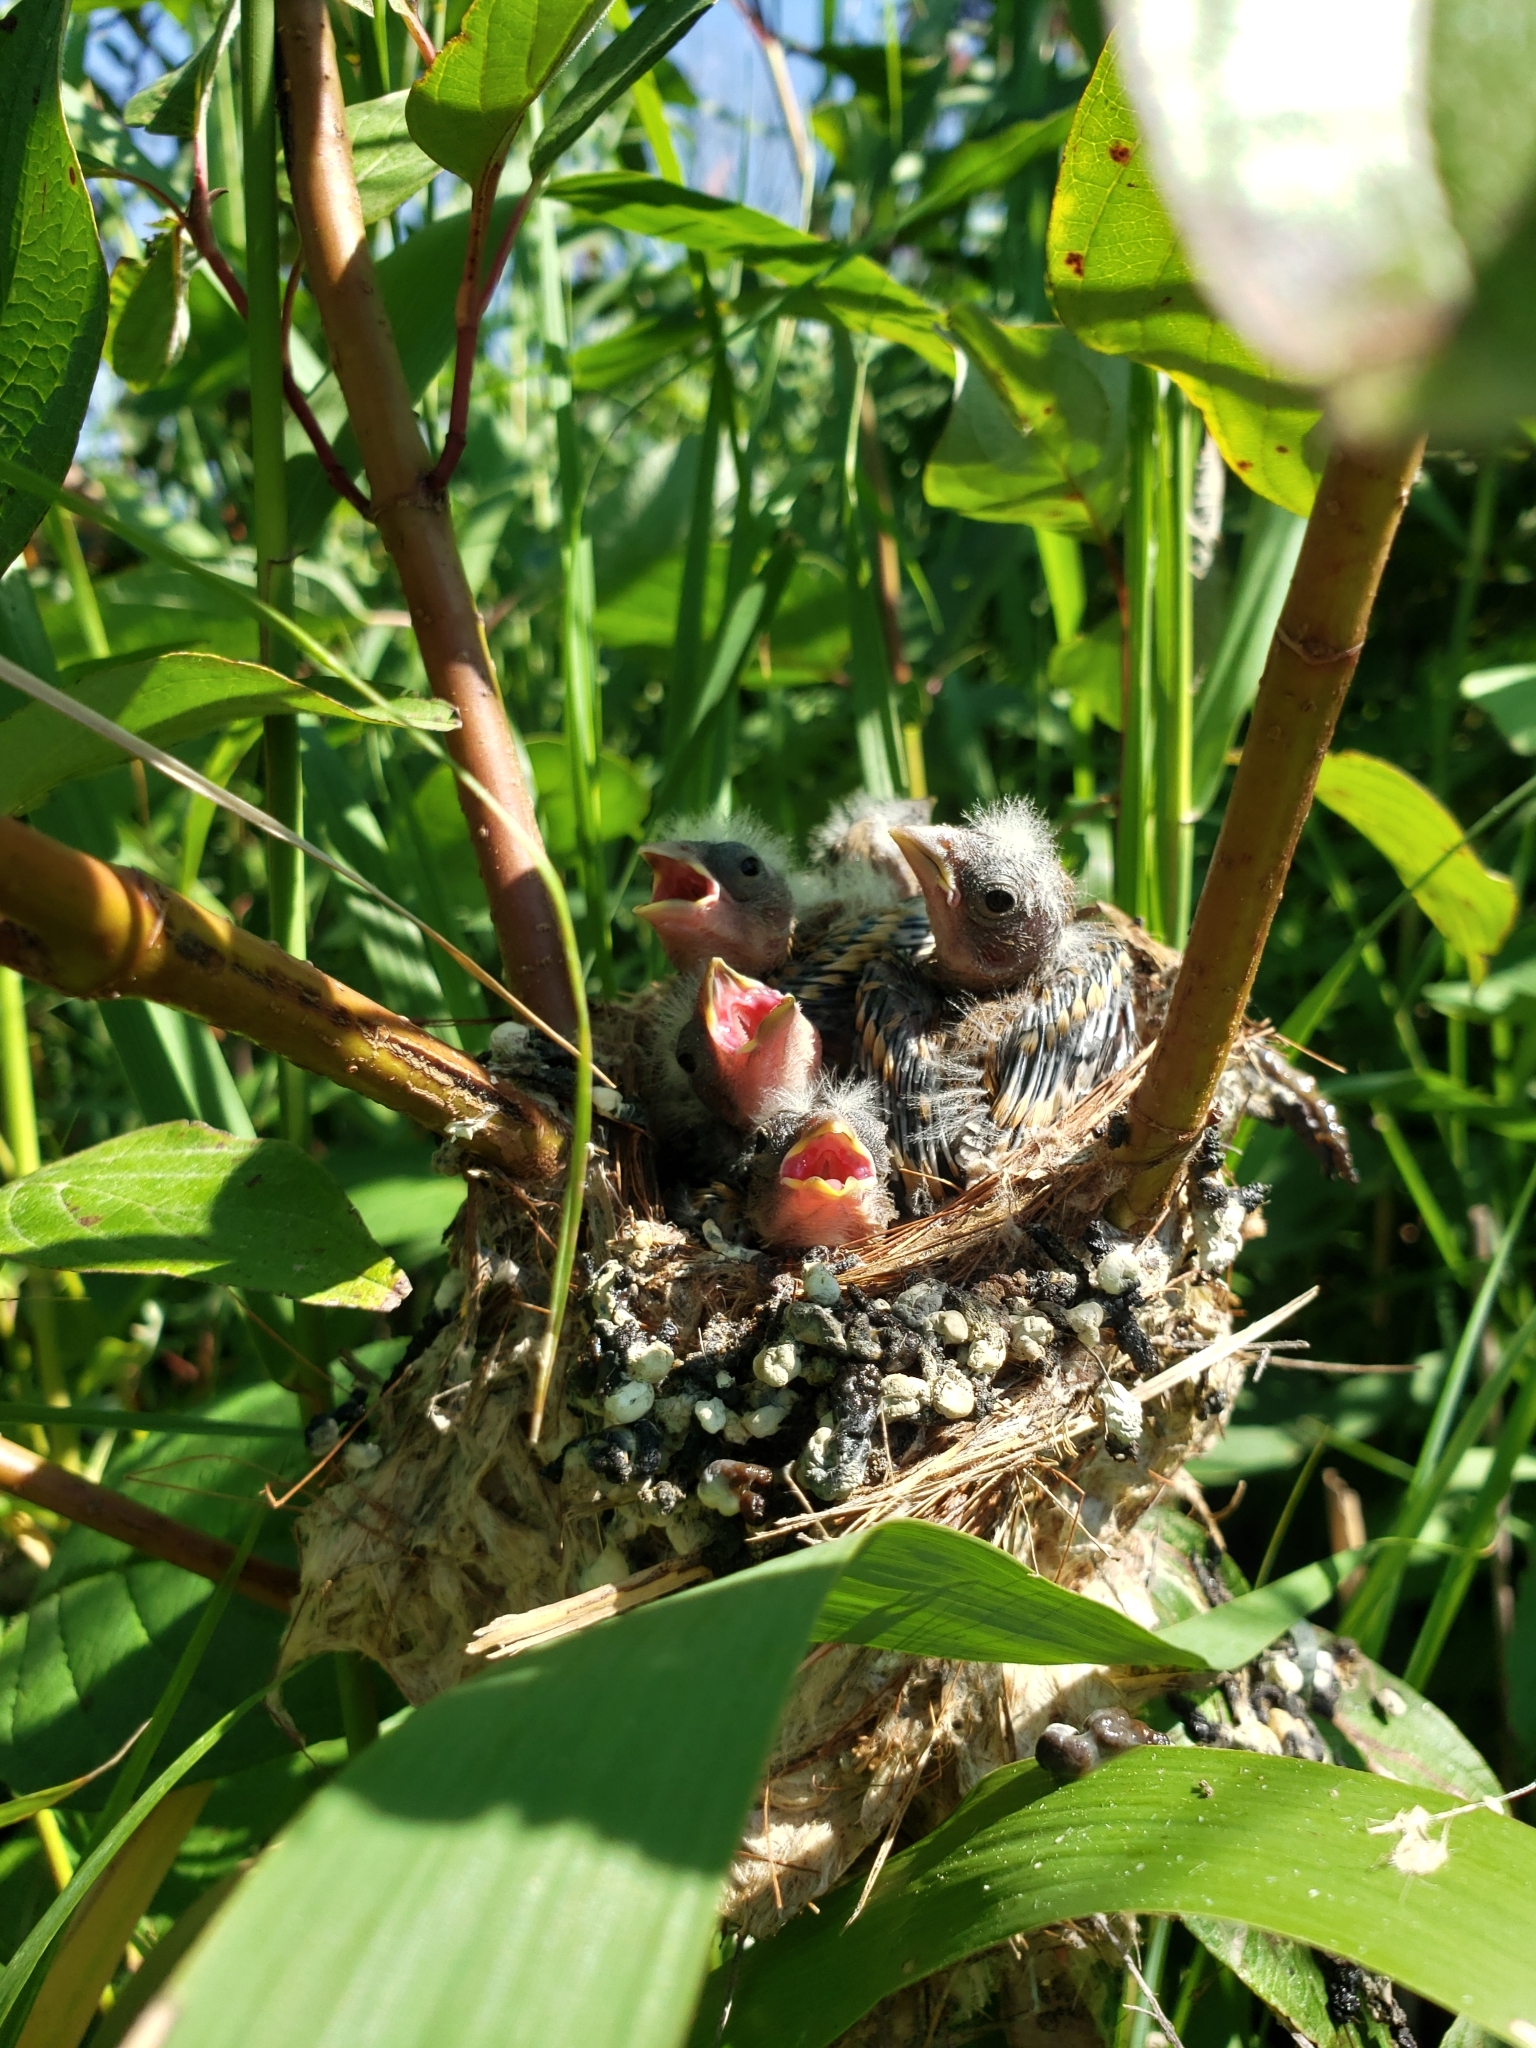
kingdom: Animalia
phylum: Chordata
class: Aves
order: Passeriformes
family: Fringillidae
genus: Spinus
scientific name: Spinus tristis
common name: American goldfinch
